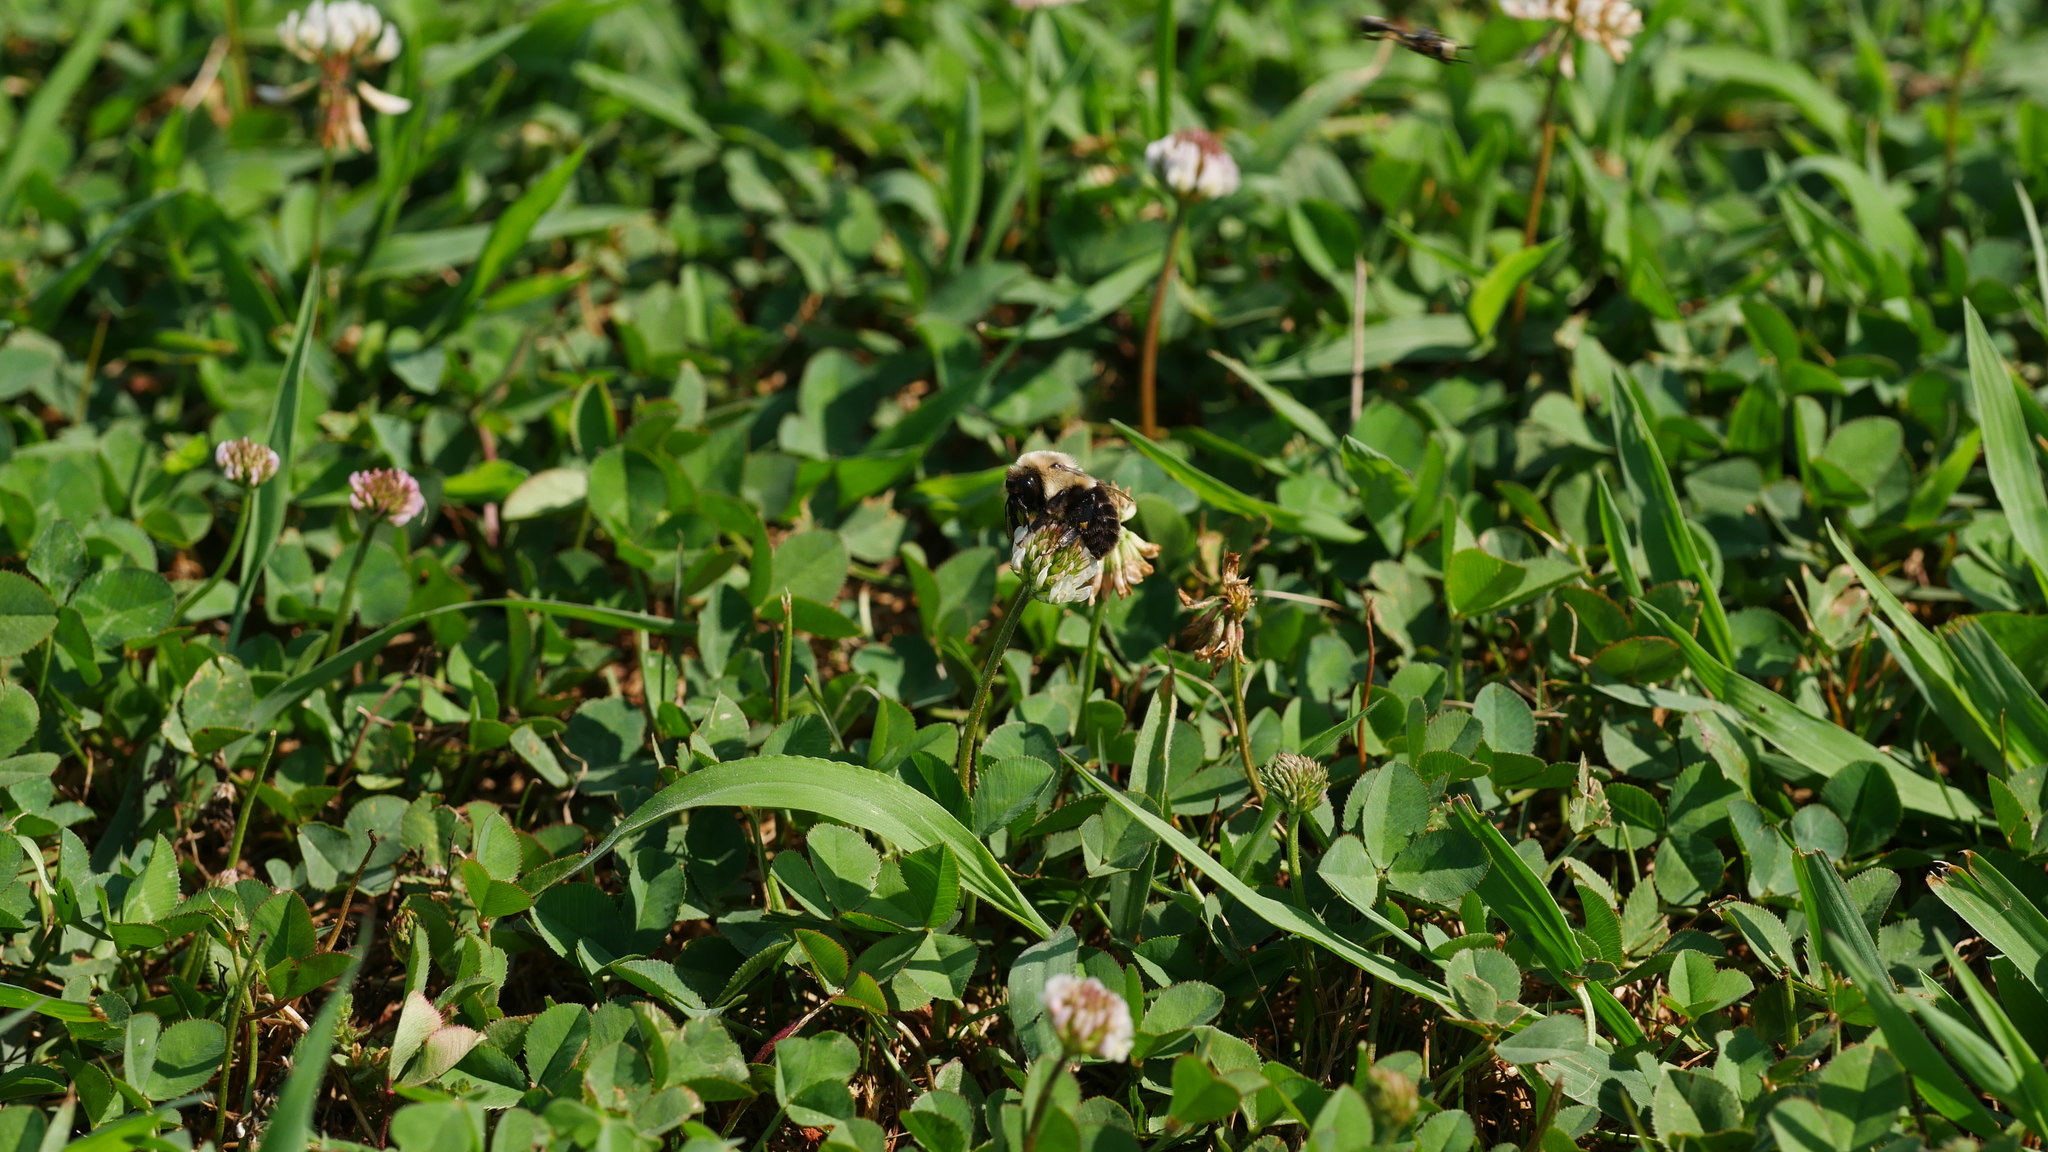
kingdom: Animalia
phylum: Arthropoda
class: Insecta
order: Hymenoptera
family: Apidae
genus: Bombus
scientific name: Bombus impatiens
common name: Common eastern bumble bee
